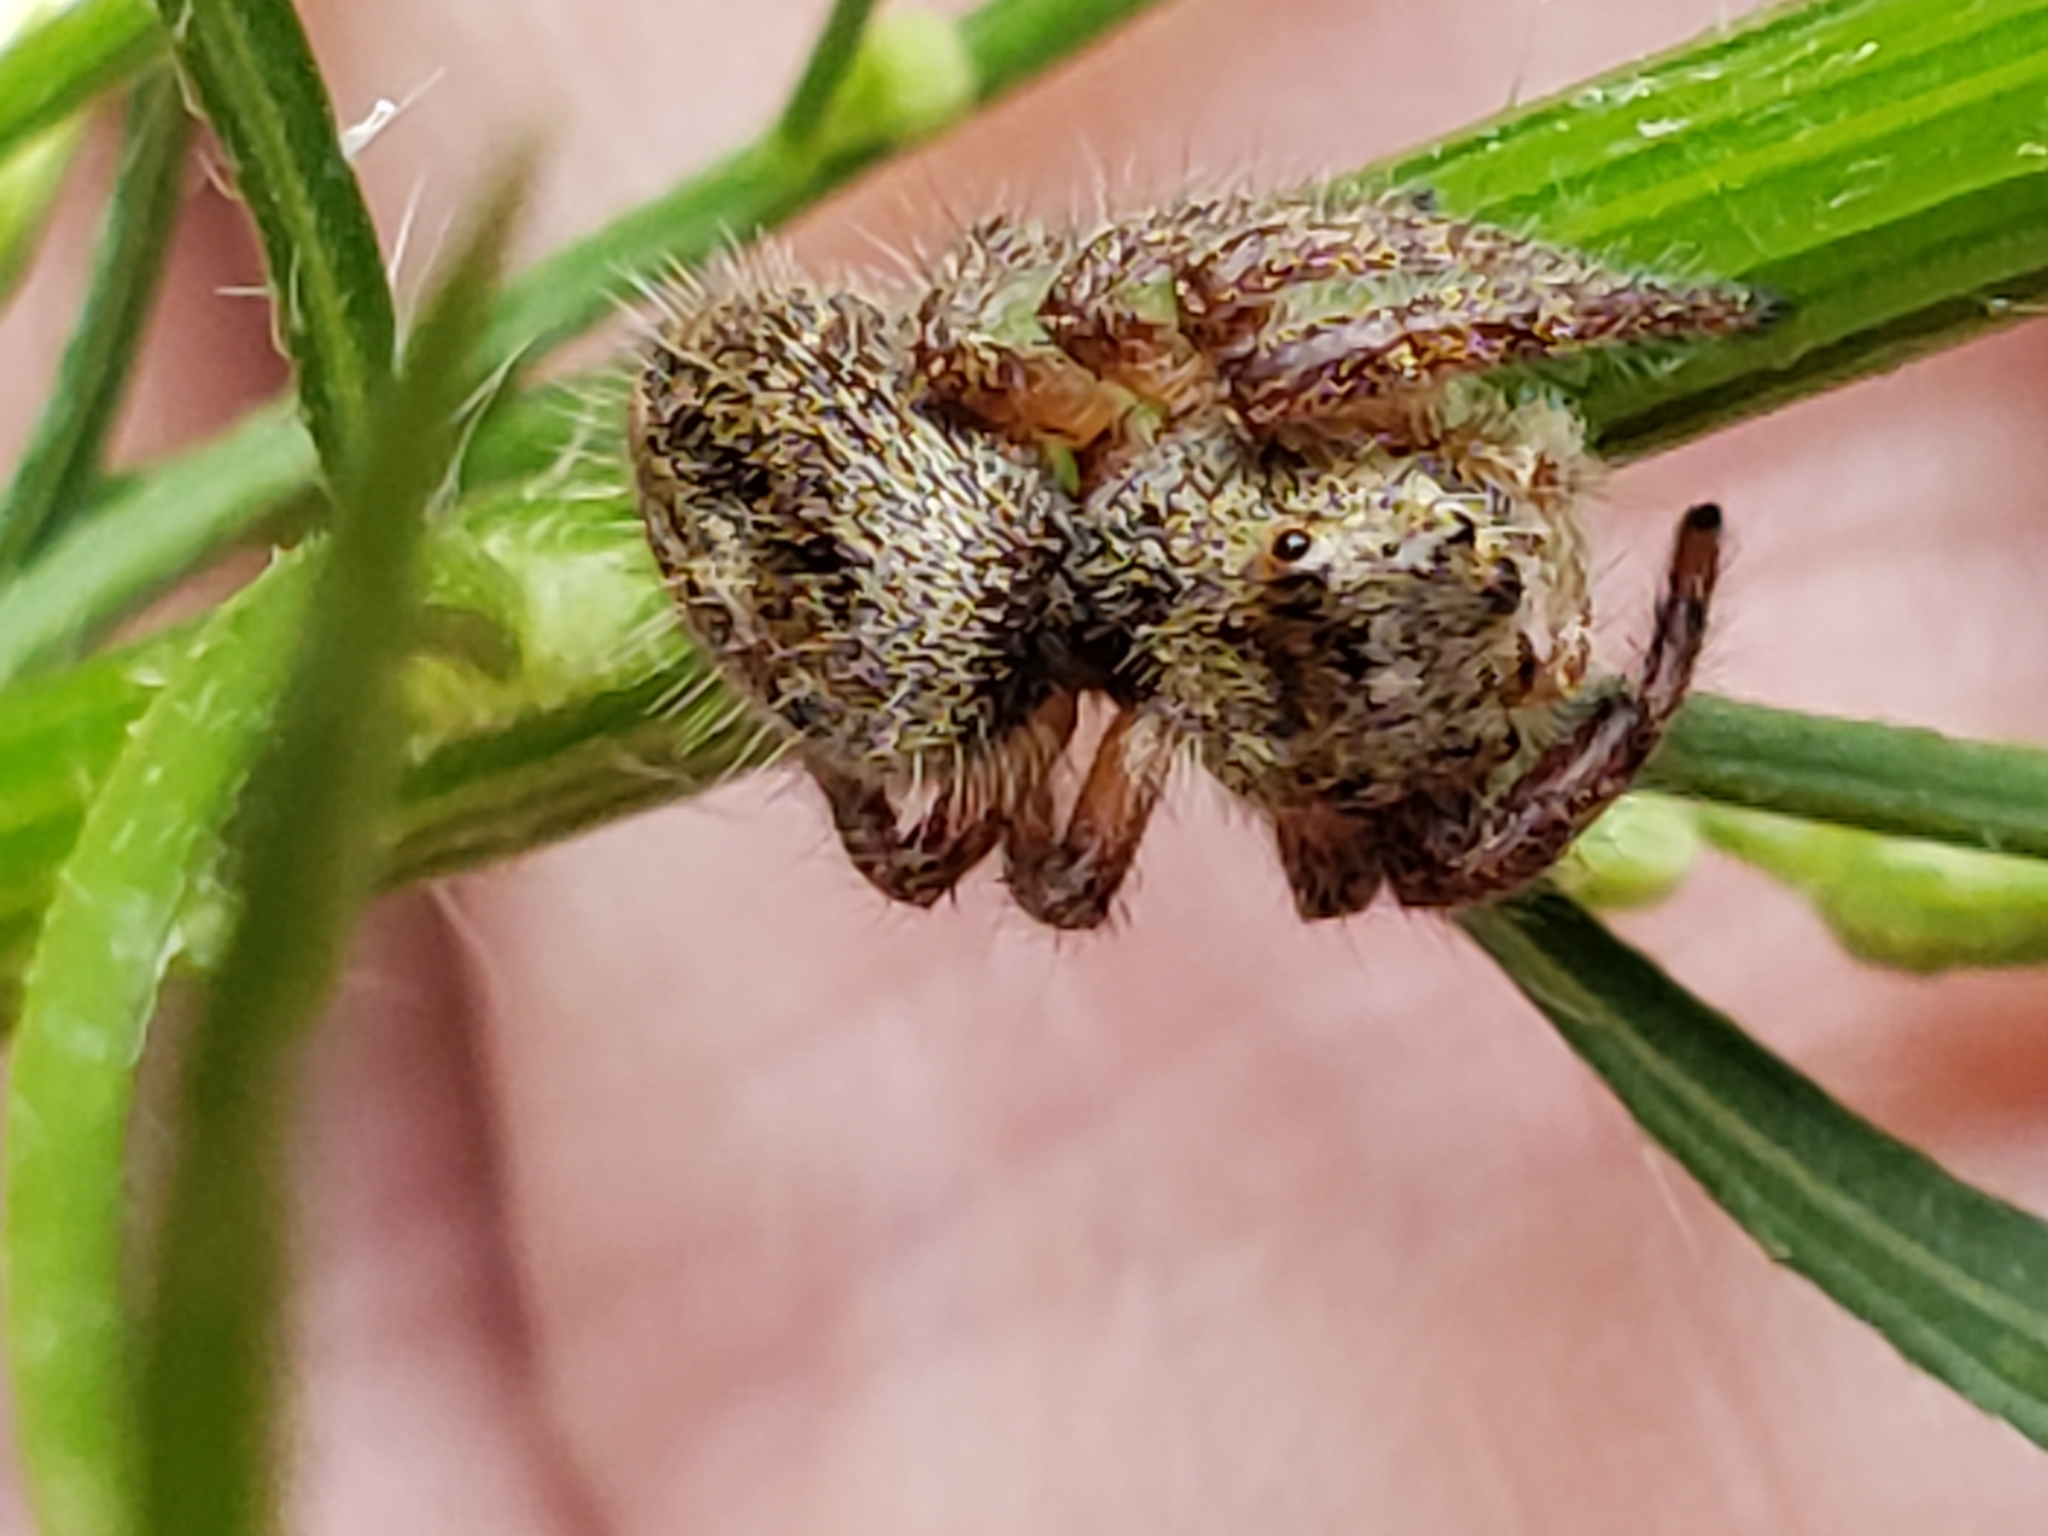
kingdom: Animalia
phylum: Arthropoda
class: Arachnida
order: Araneae
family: Salticidae
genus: Phidippus
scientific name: Phidippus princeps
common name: Grayish jumping spider
